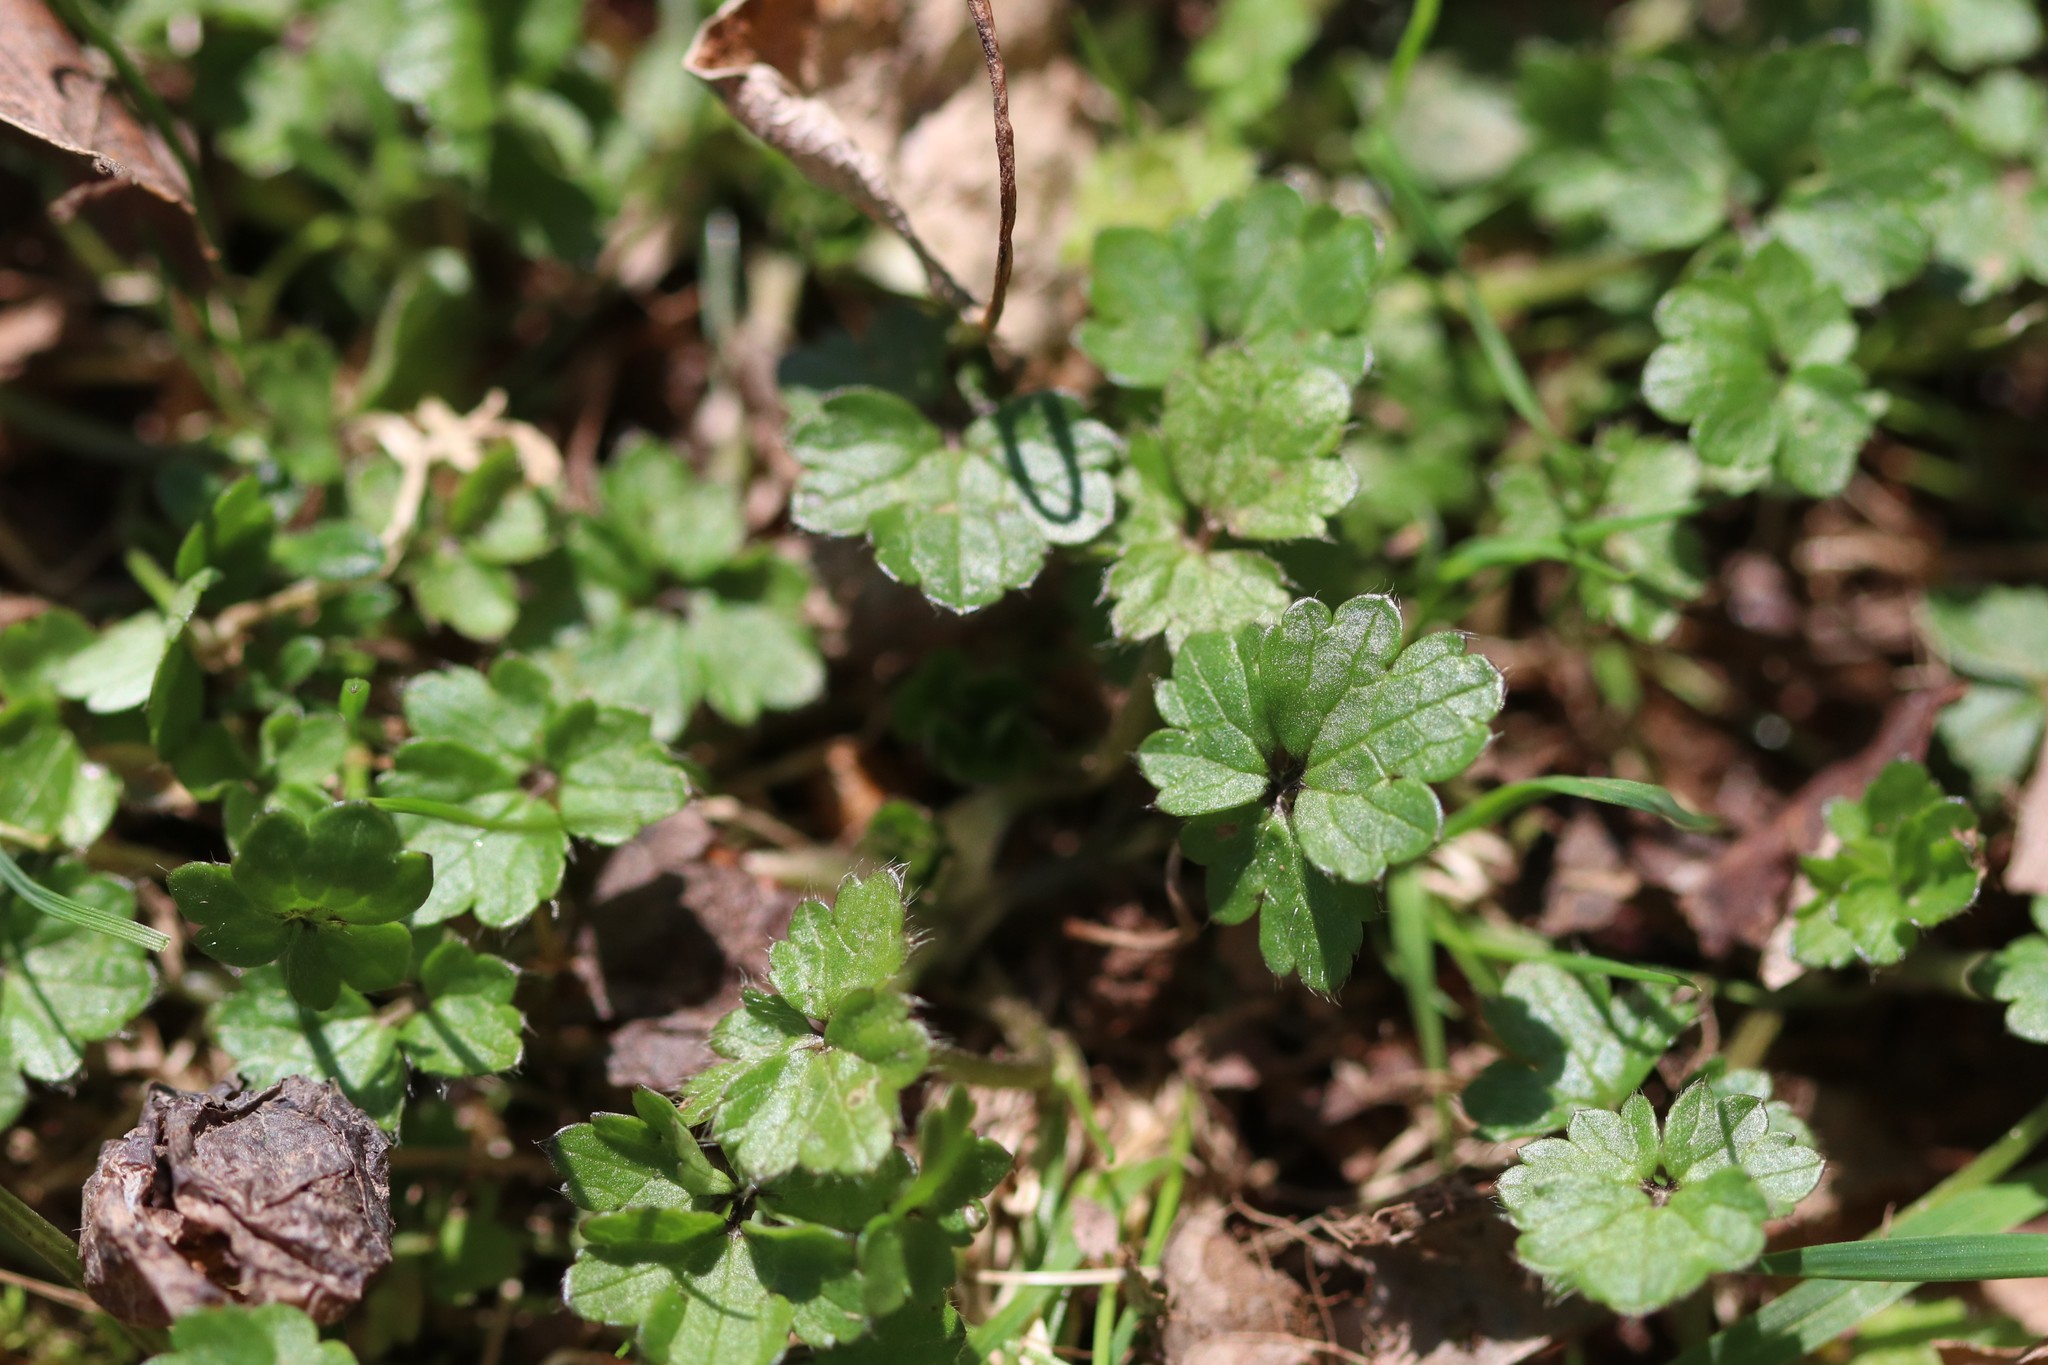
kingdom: Plantae
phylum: Tracheophyta
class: Magnoliopsida
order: Lamiales
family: Lamiaceae
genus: Glechoma
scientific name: Glechoma hederacea
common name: Ground ivy
